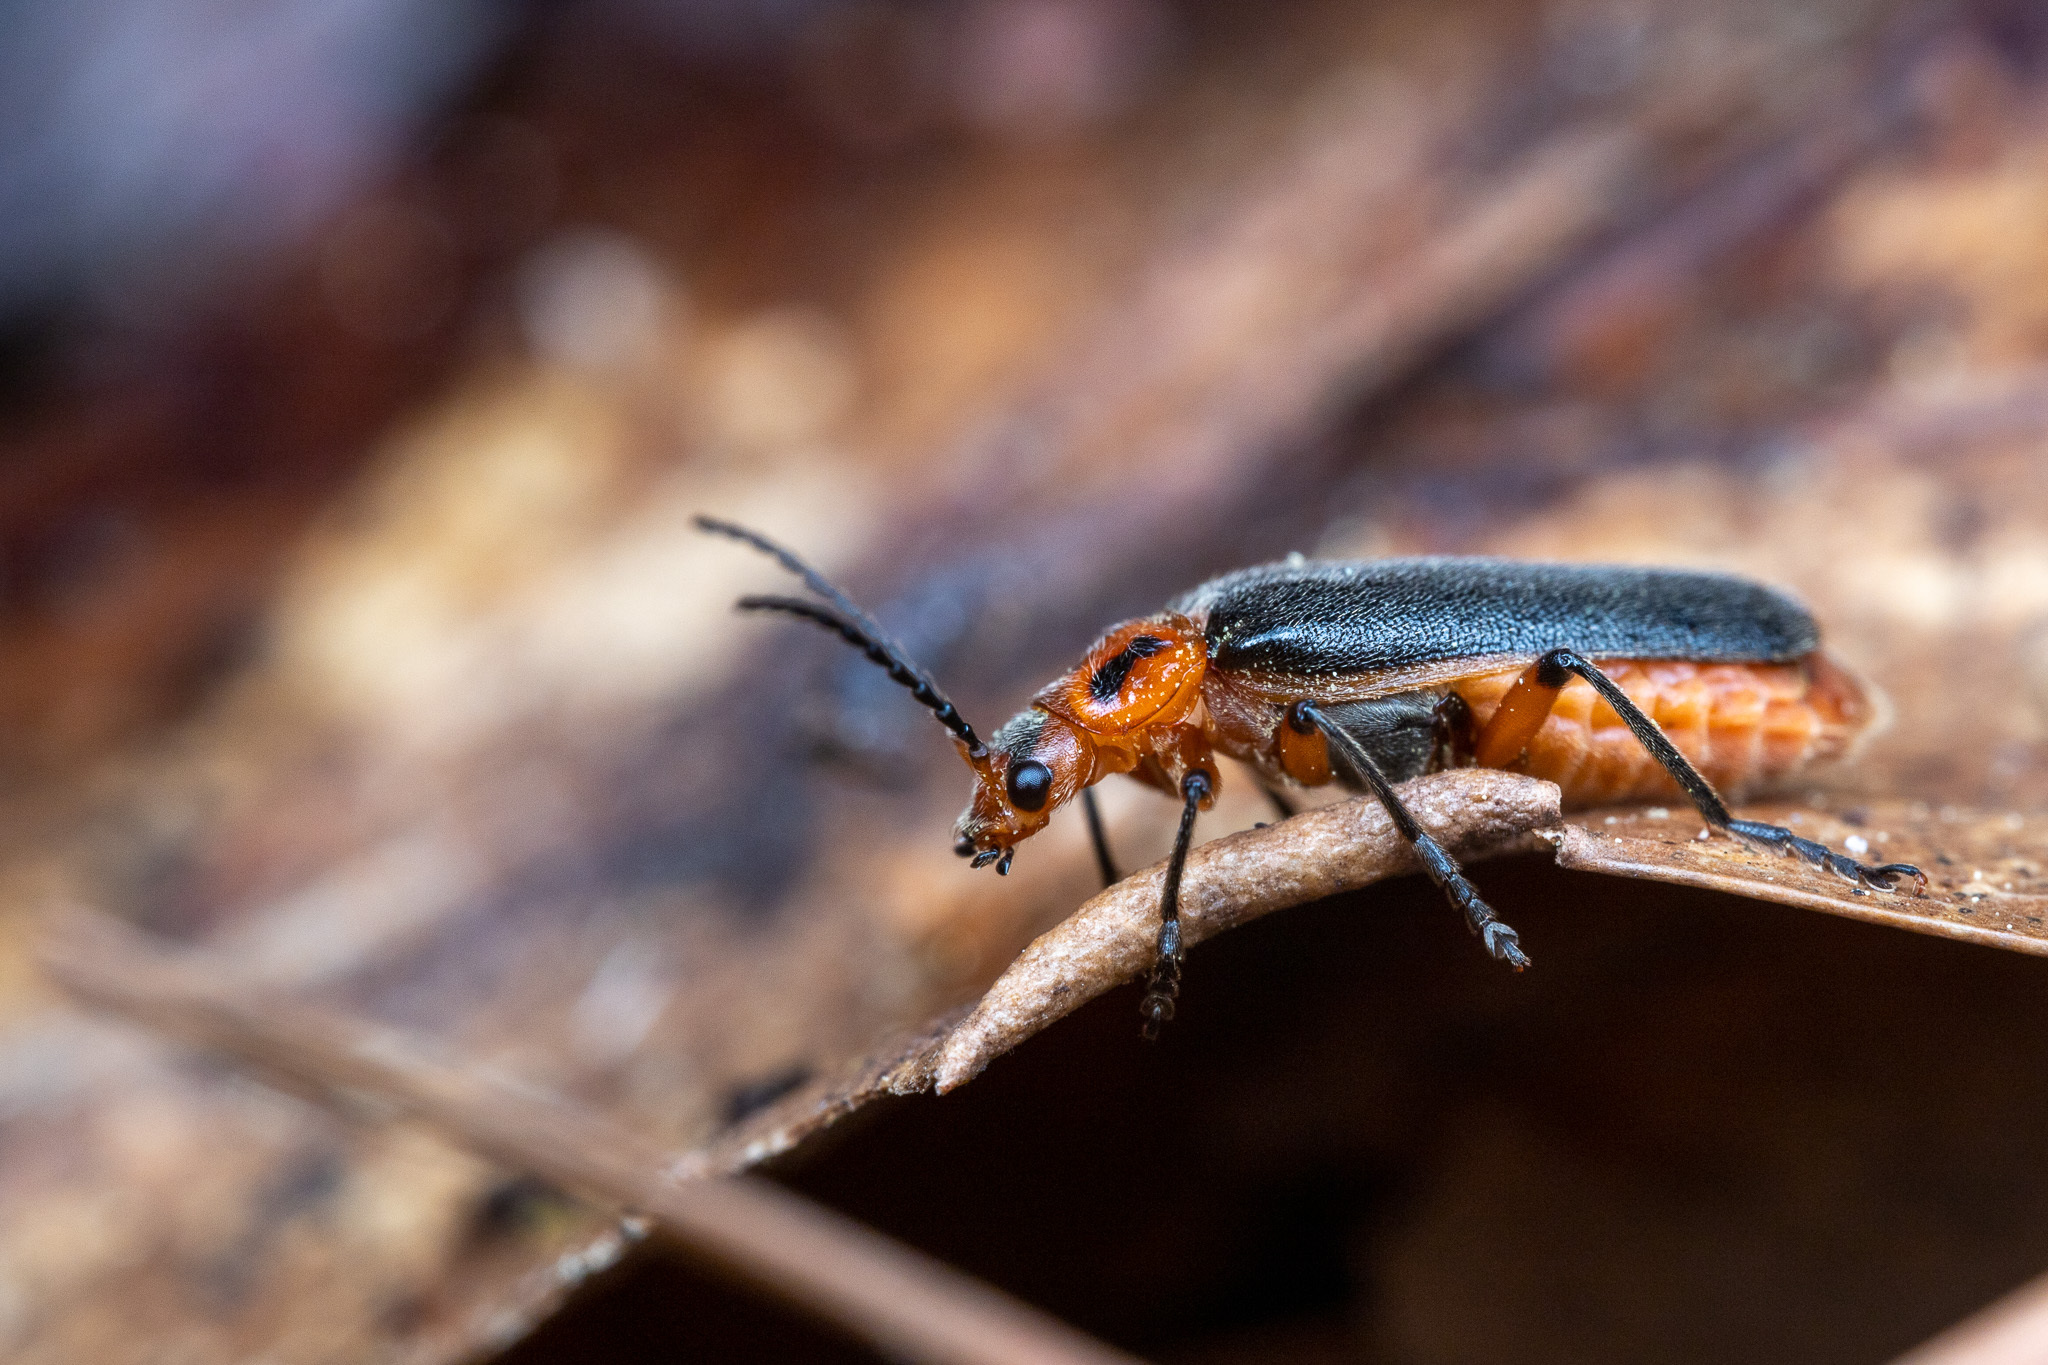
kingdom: Animalia
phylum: Arthropoda
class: Insecta
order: Coleoptera
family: Cantharidae
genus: Atalantycha
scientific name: Atalantycha bilineata
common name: Two-lined leatherwing
